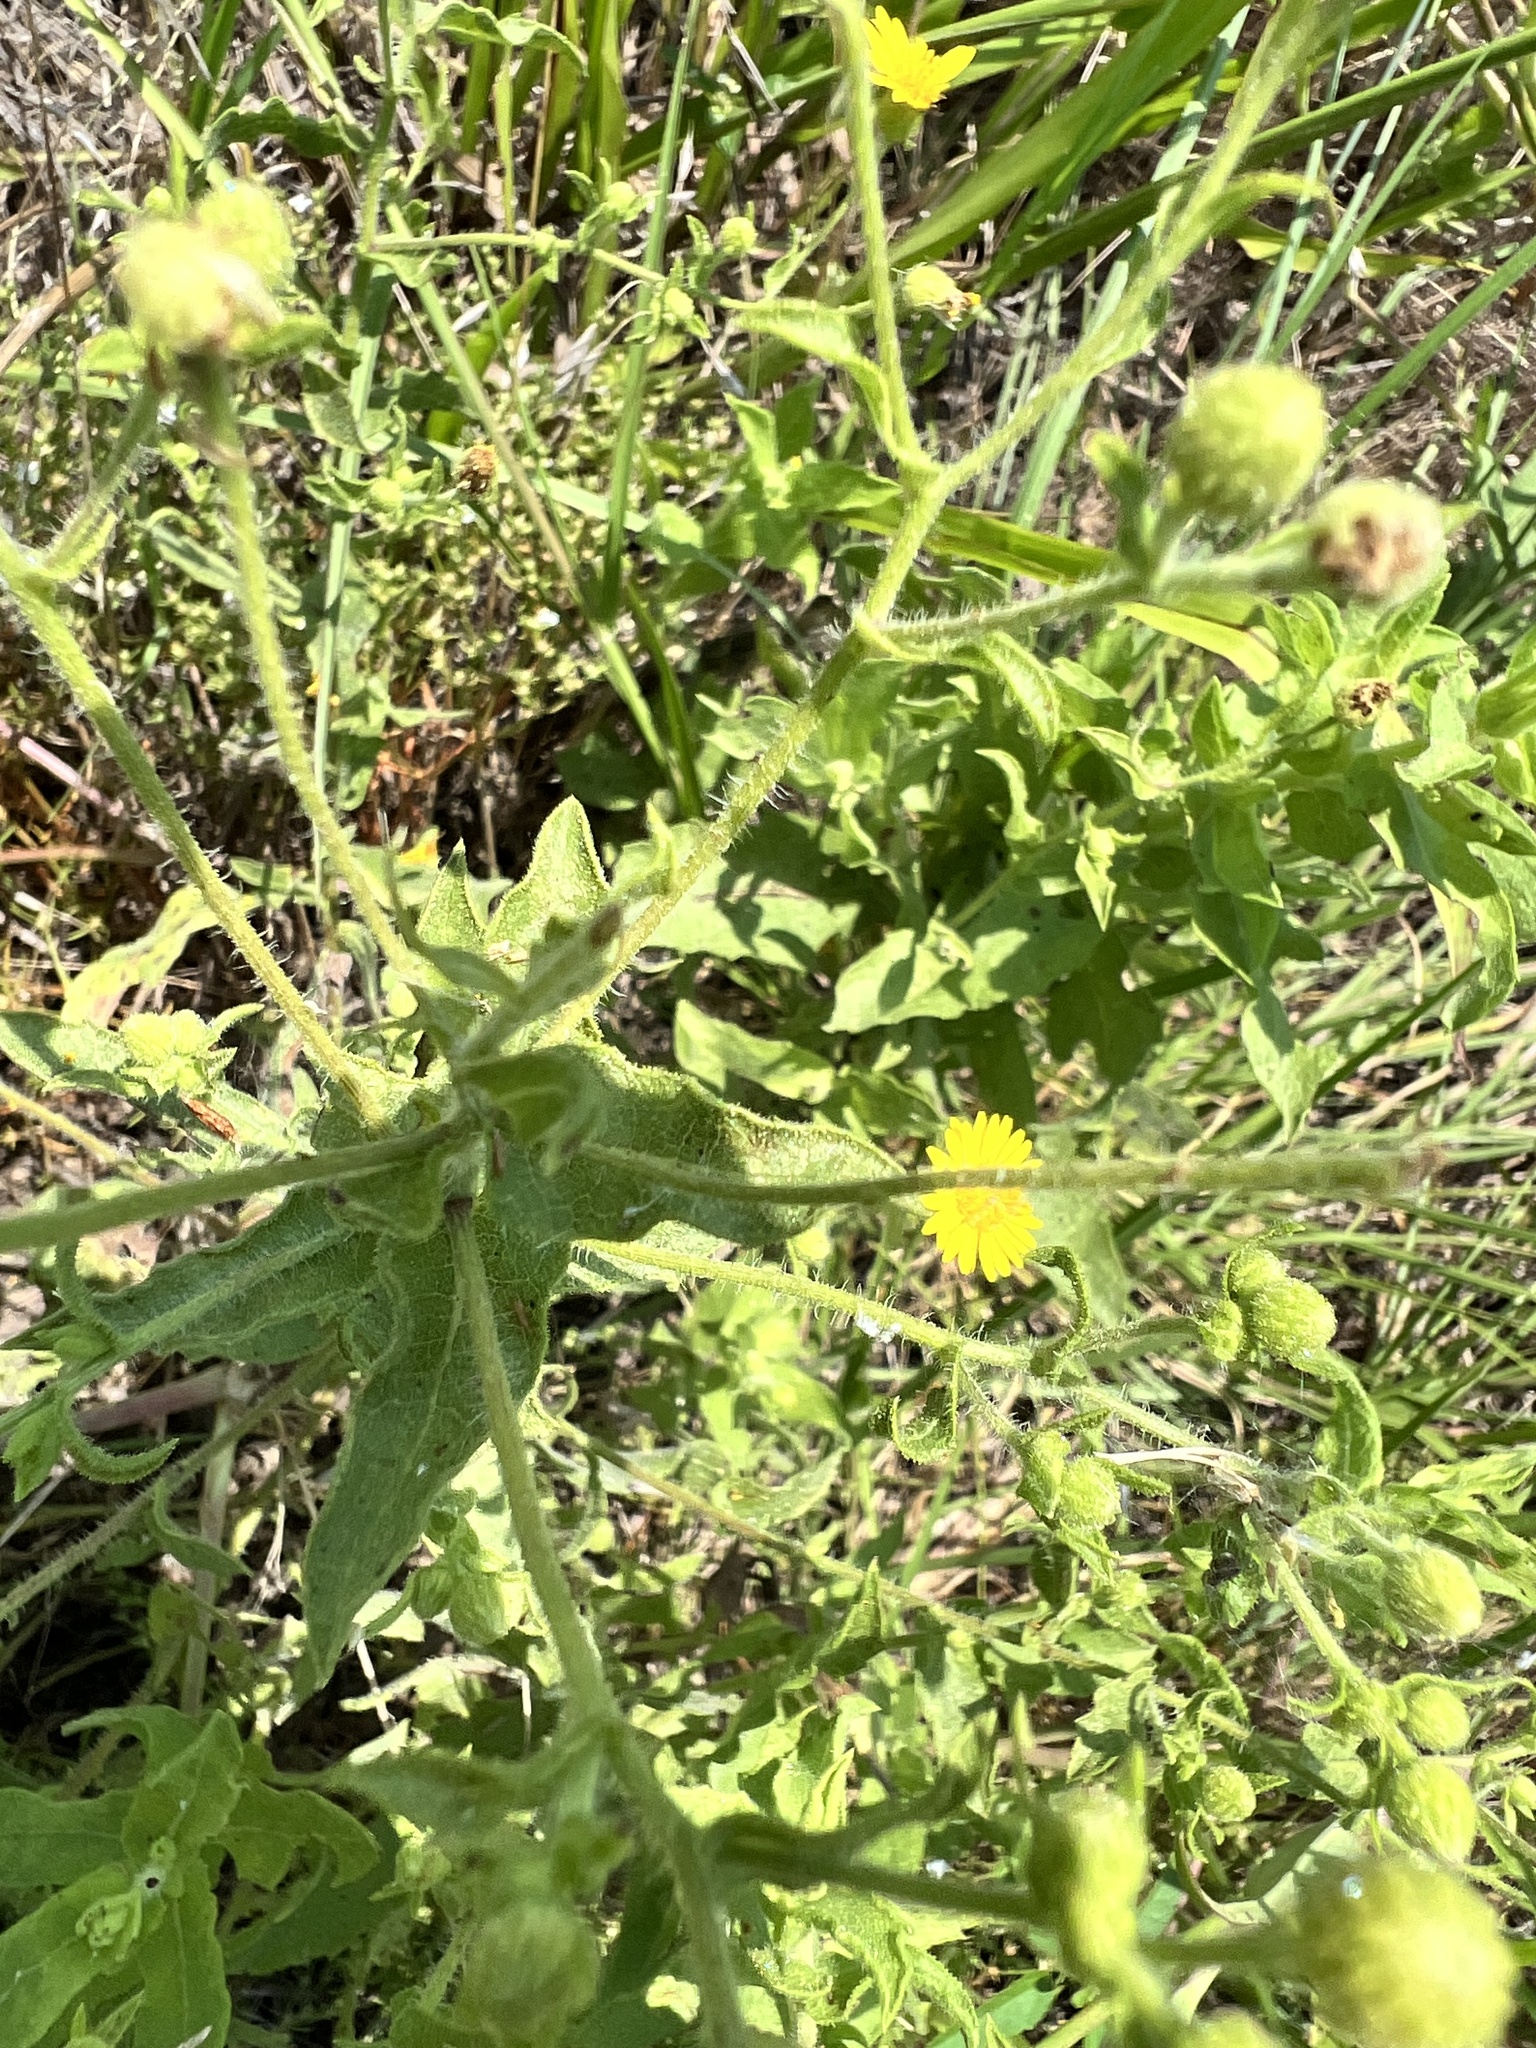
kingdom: Plantae
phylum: Tracheophyta
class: Magnoliopsida
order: Asterales
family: Asteraceae
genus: Heterotheca
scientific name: Heterotheca subaxillaris
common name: Camphorweed
